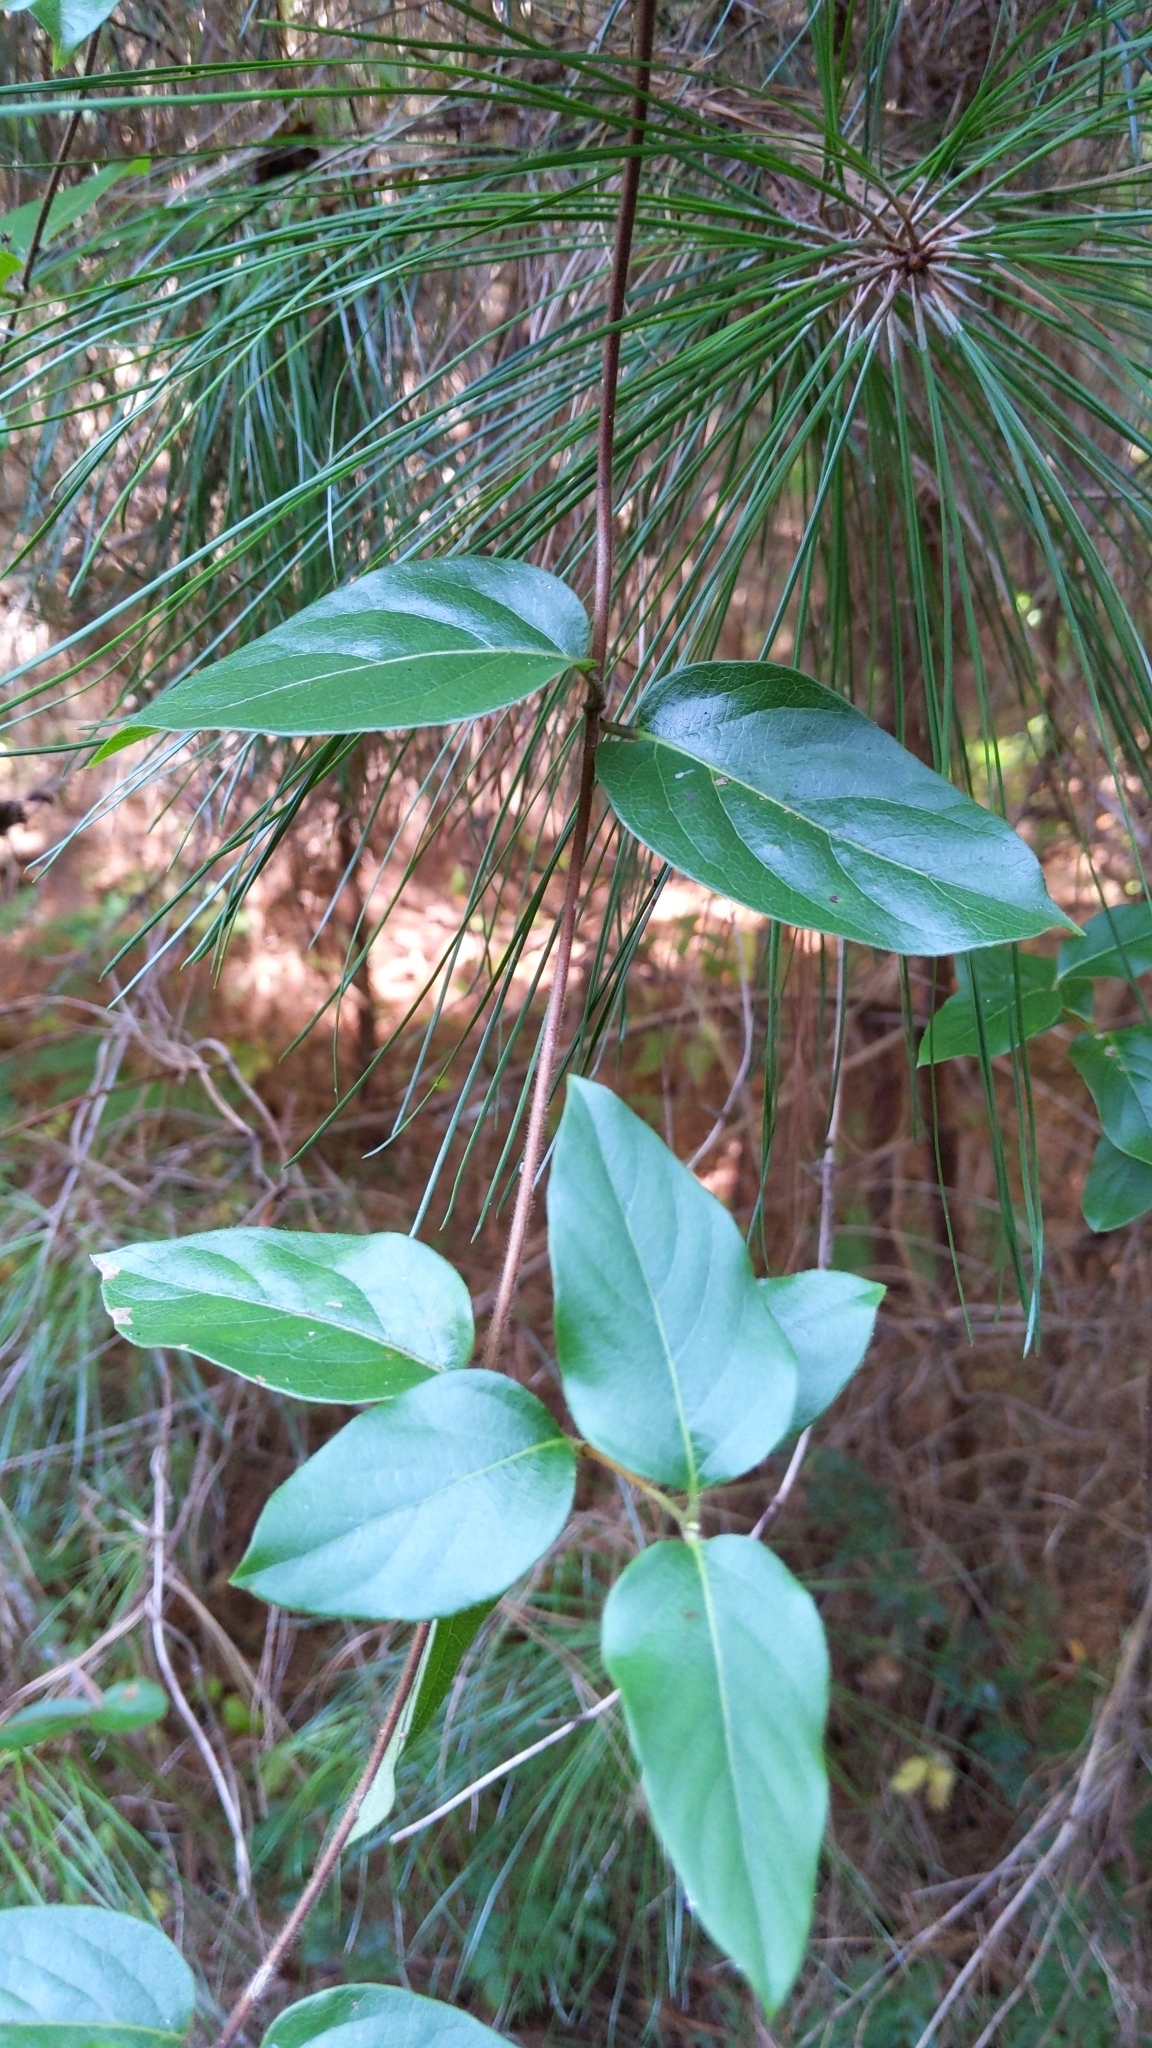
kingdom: Plantae
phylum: Tracheophyta
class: Magnoliopsida
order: Dipsacales
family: Caprifoliaceae
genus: Lonicera
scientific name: Lonicera japonica
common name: Japanese honeysuckle
